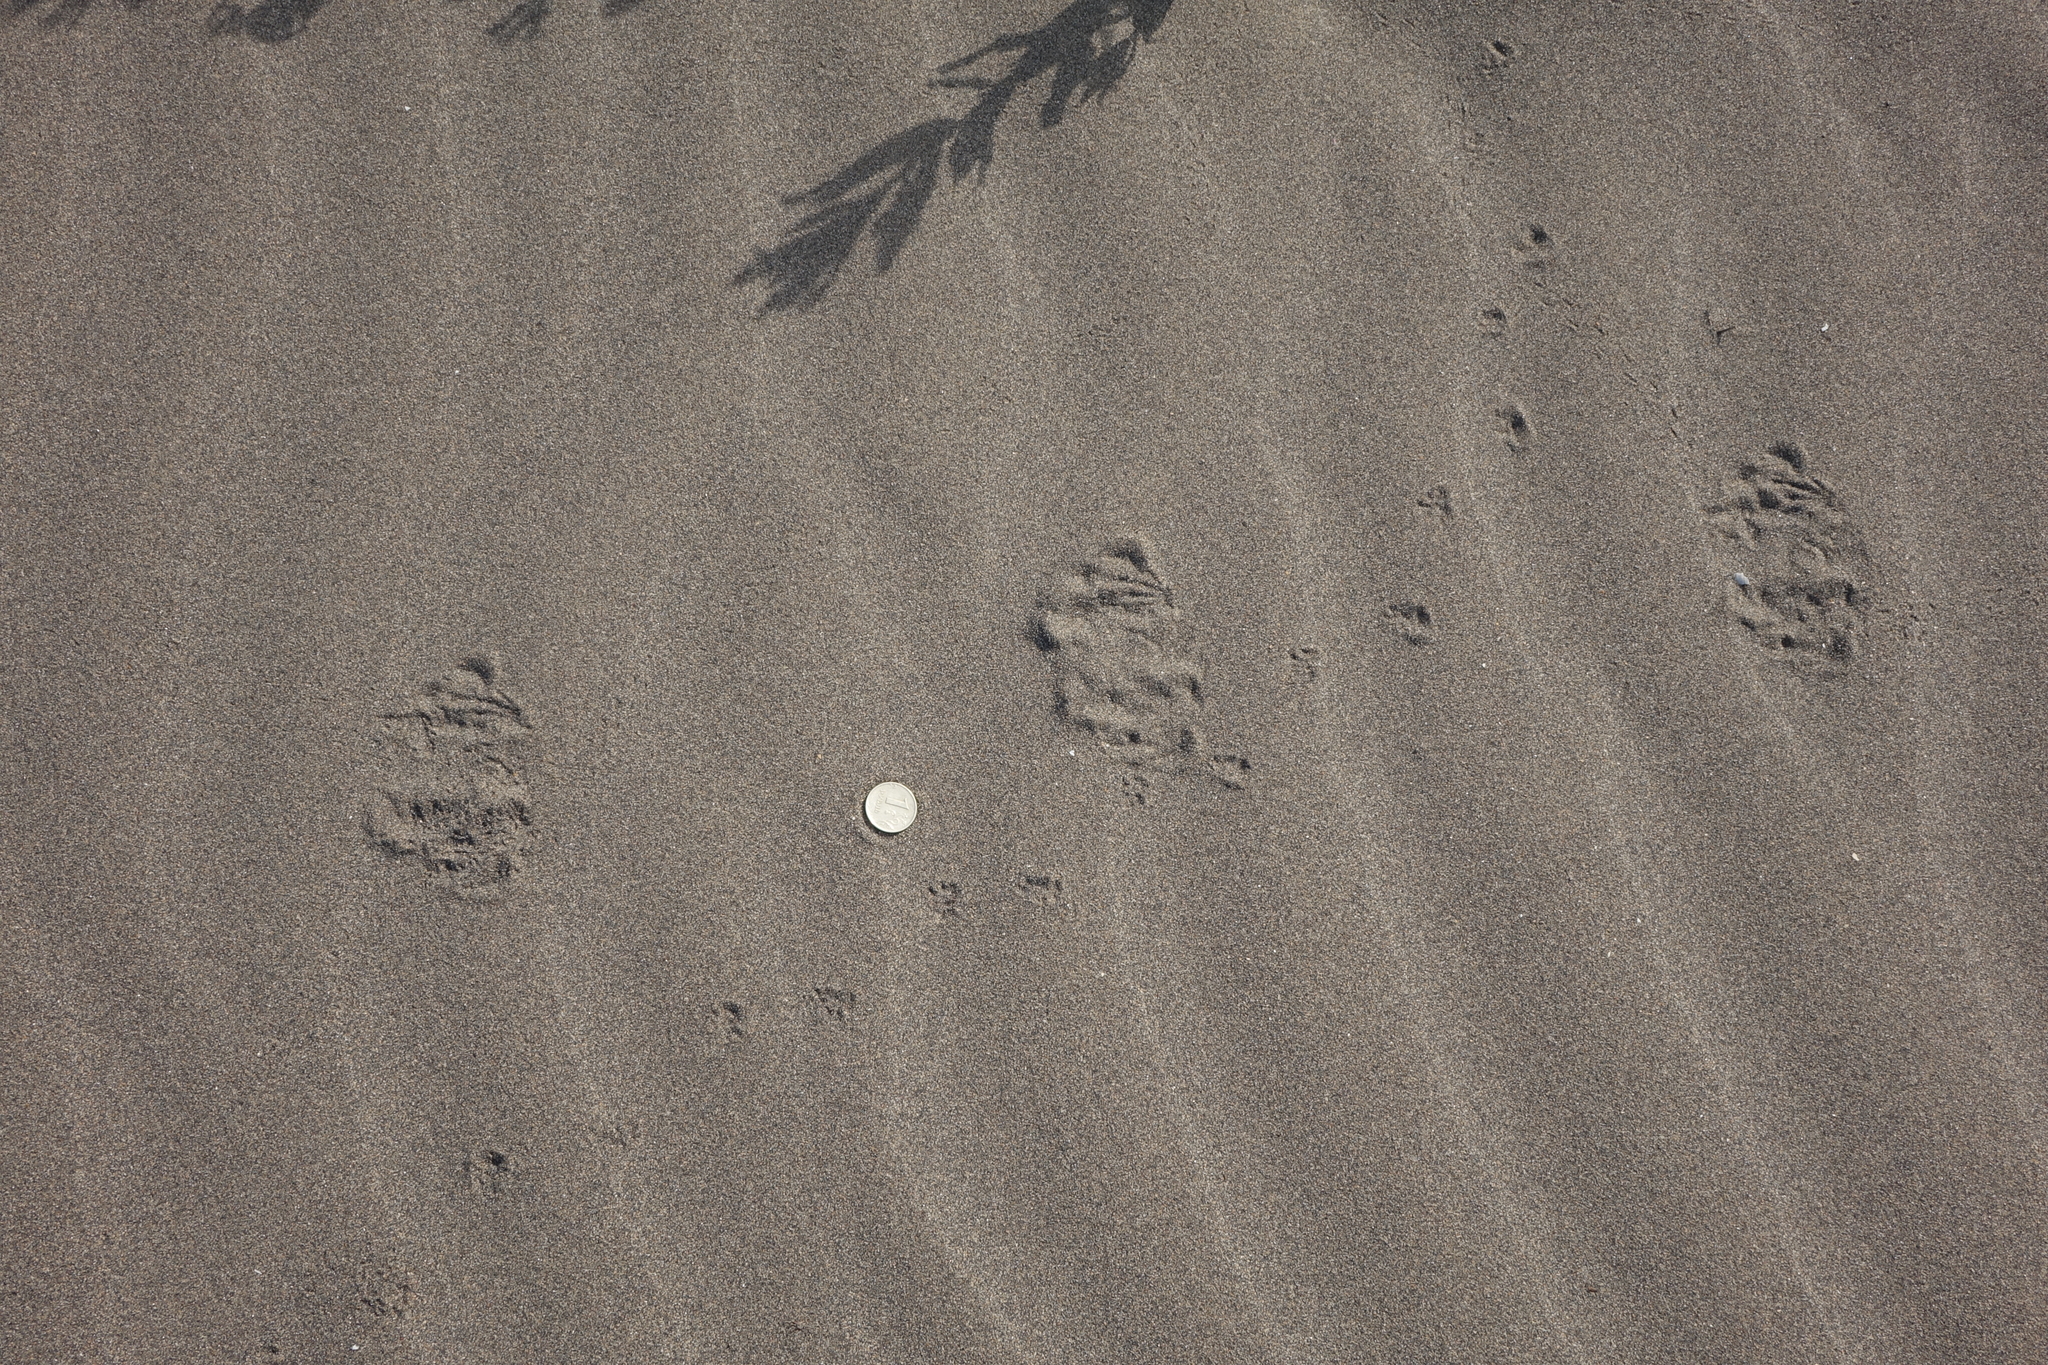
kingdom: Animalia
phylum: Chordata
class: Mammalia
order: Rodentia
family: Dipodidae
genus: Allactaga
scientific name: Allactaga major
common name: Great jerboa
